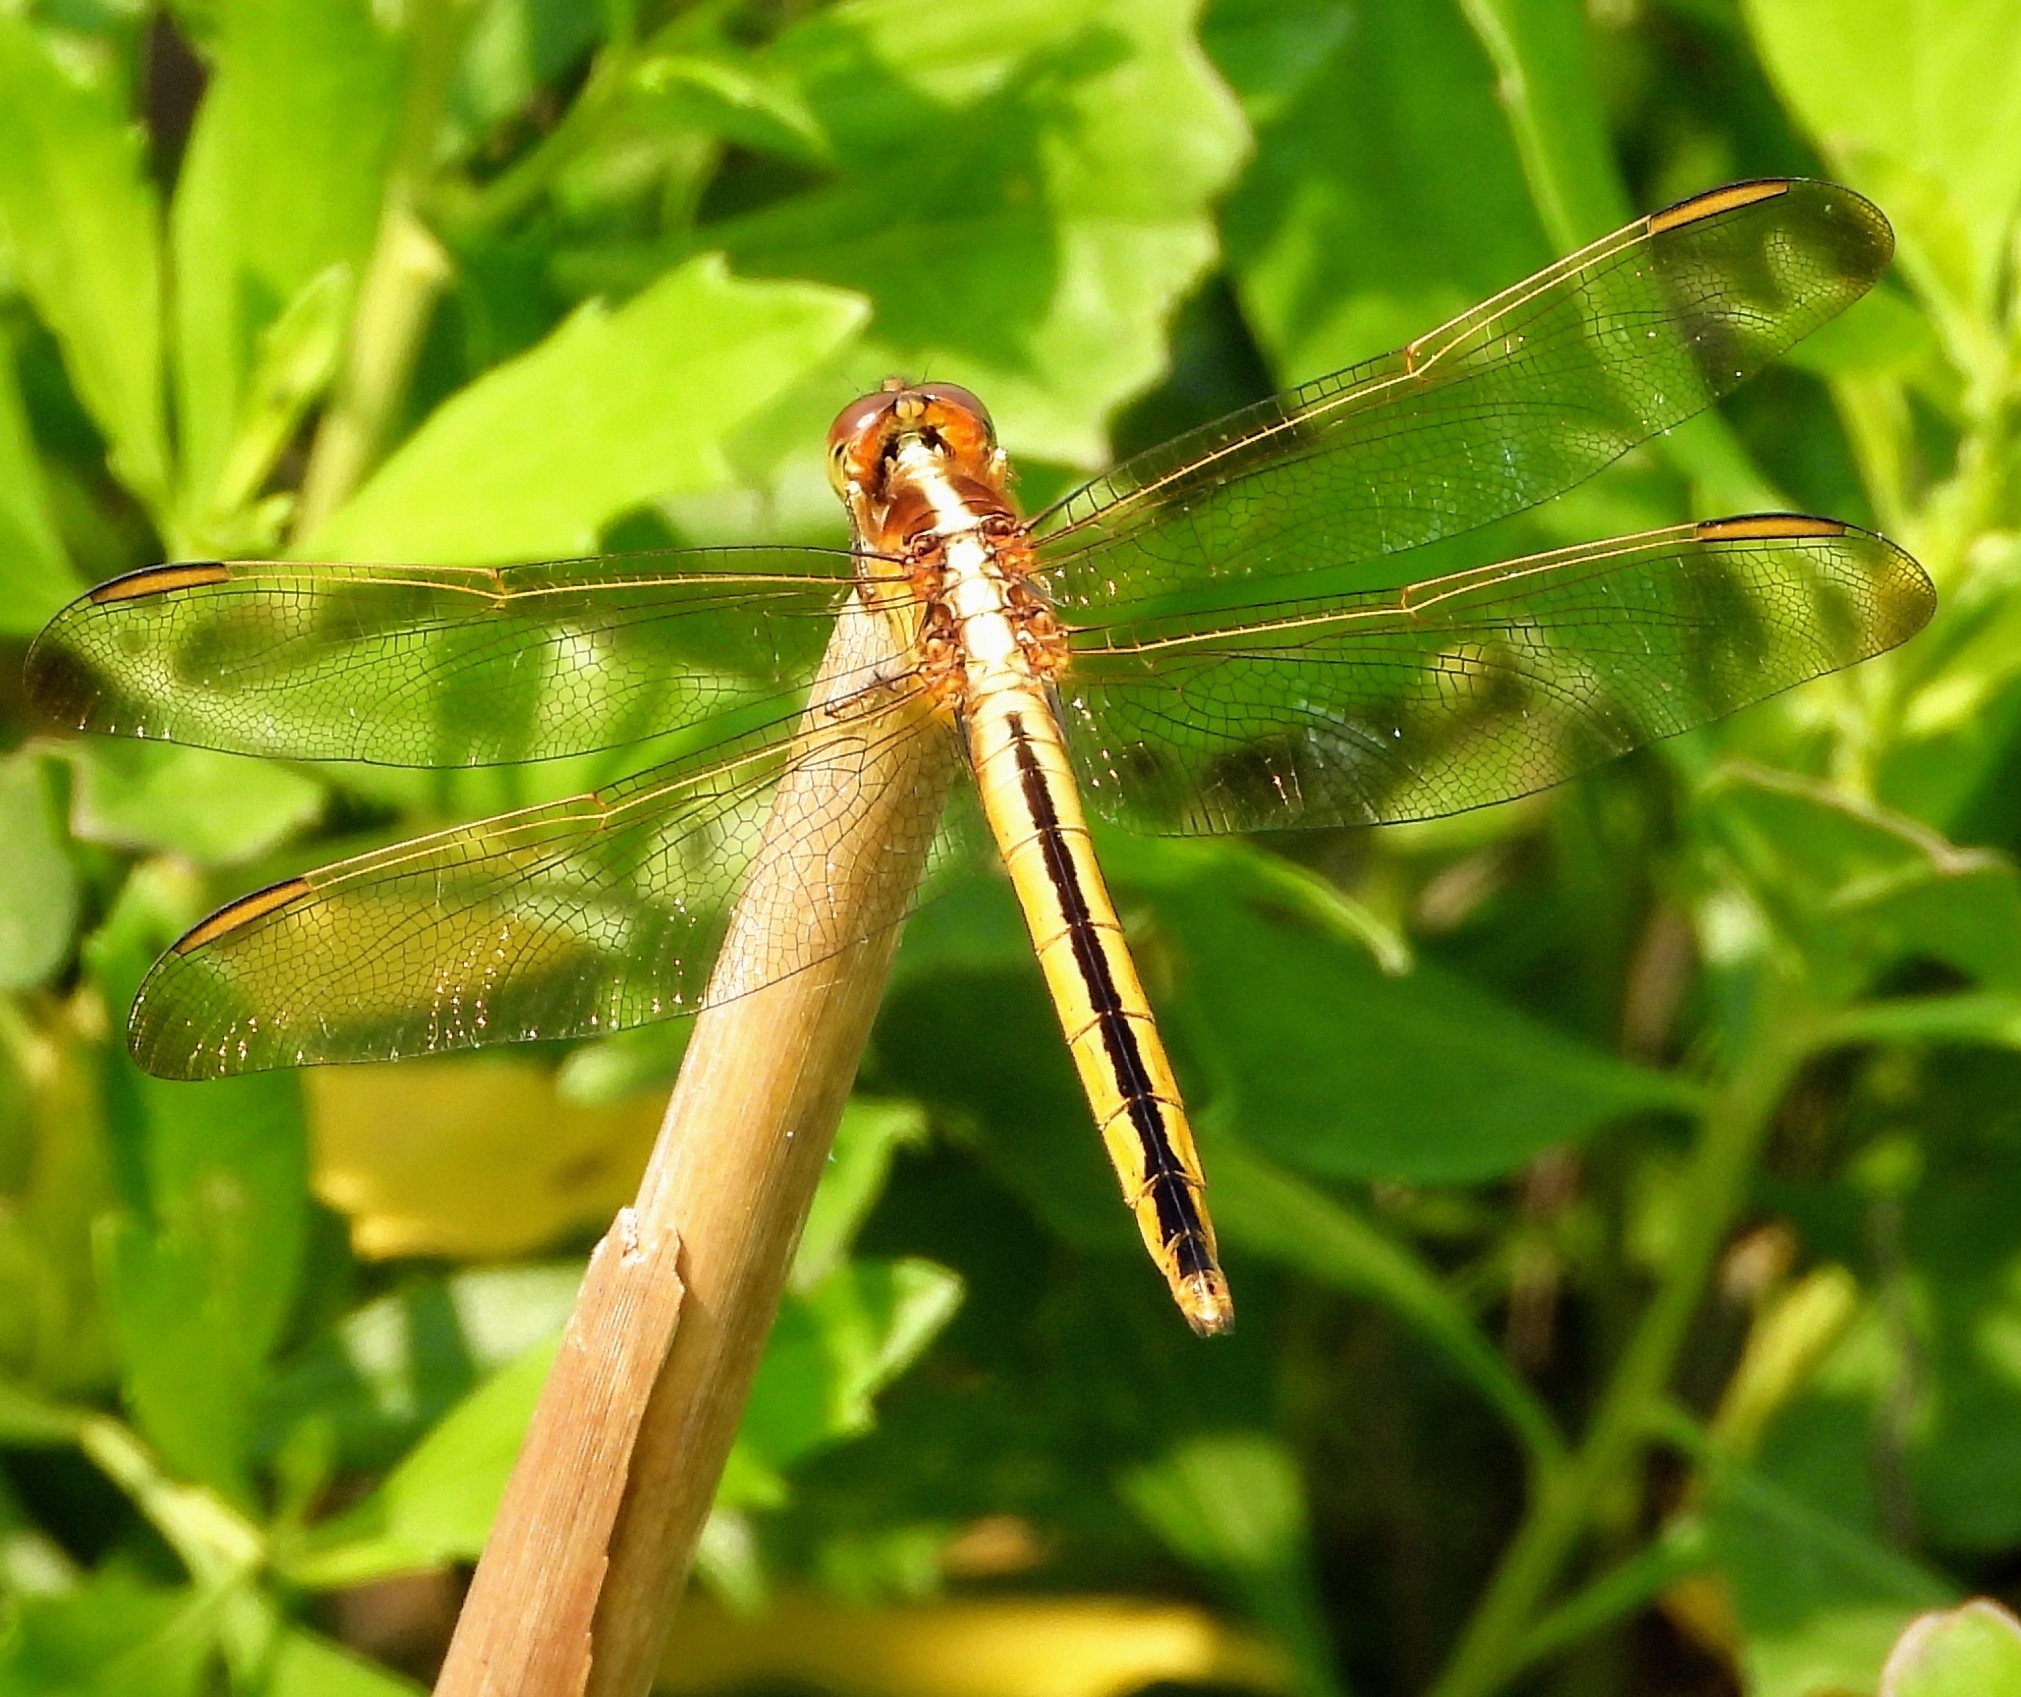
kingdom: Animalia
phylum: Arthropoda
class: Insecta
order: Odonata
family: Libellulidae
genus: Libellula
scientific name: Libellula needhami
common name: Needham's skimmer
